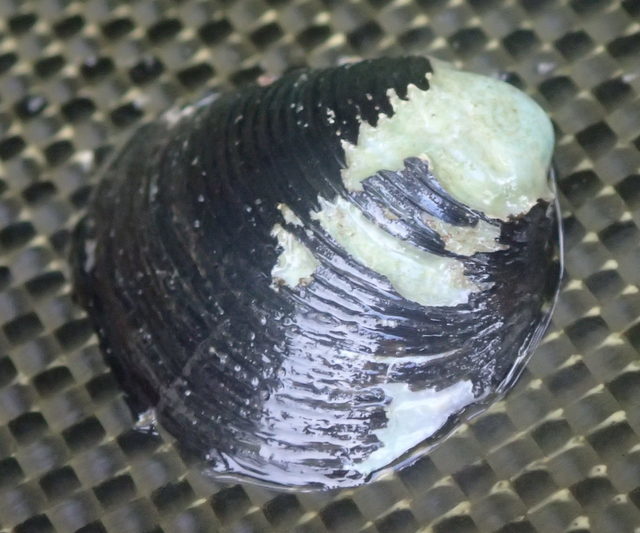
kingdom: Animalia
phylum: Mollusca
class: Bivalvia
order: Venerida
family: Cyrenidae
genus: Corbicula
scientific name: Corbicula fluminea
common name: Asian clam
